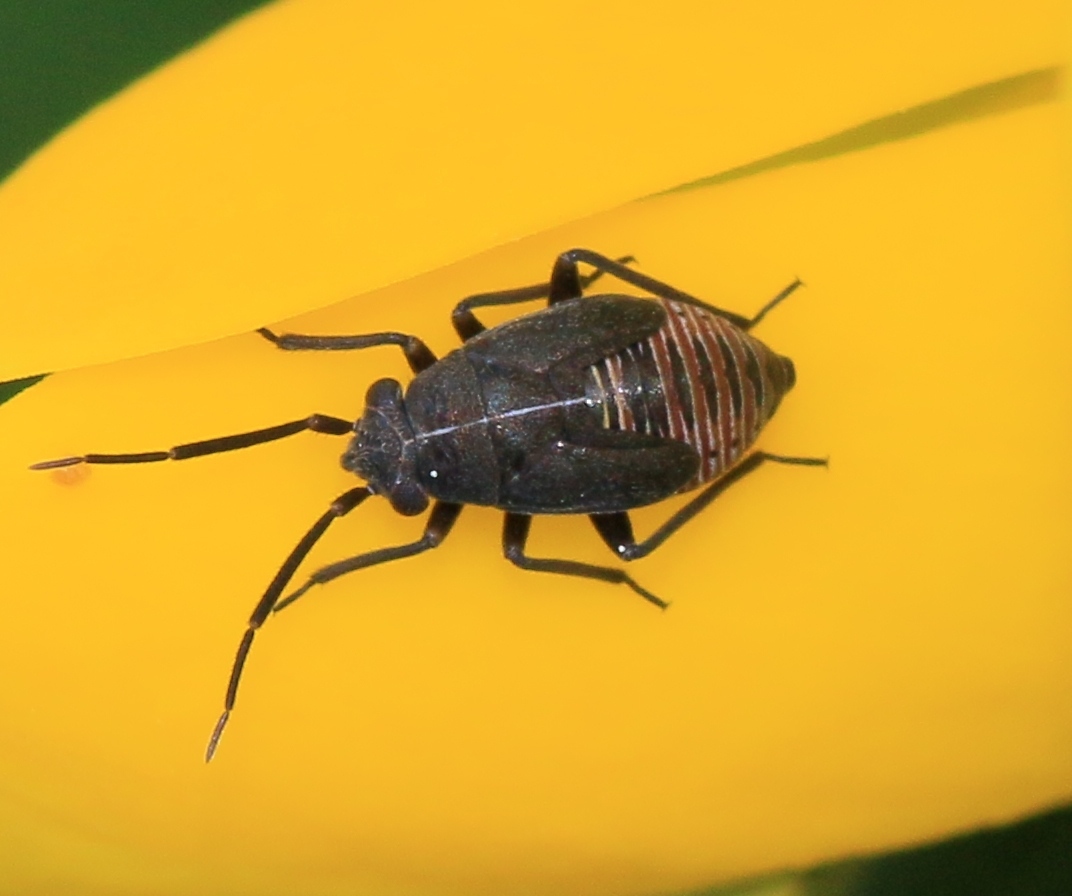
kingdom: Animalia
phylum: Arthropoda
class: Insecta
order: Hemiptera
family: Miridae
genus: Heterocordylus
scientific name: Heterocordylus tibialis
